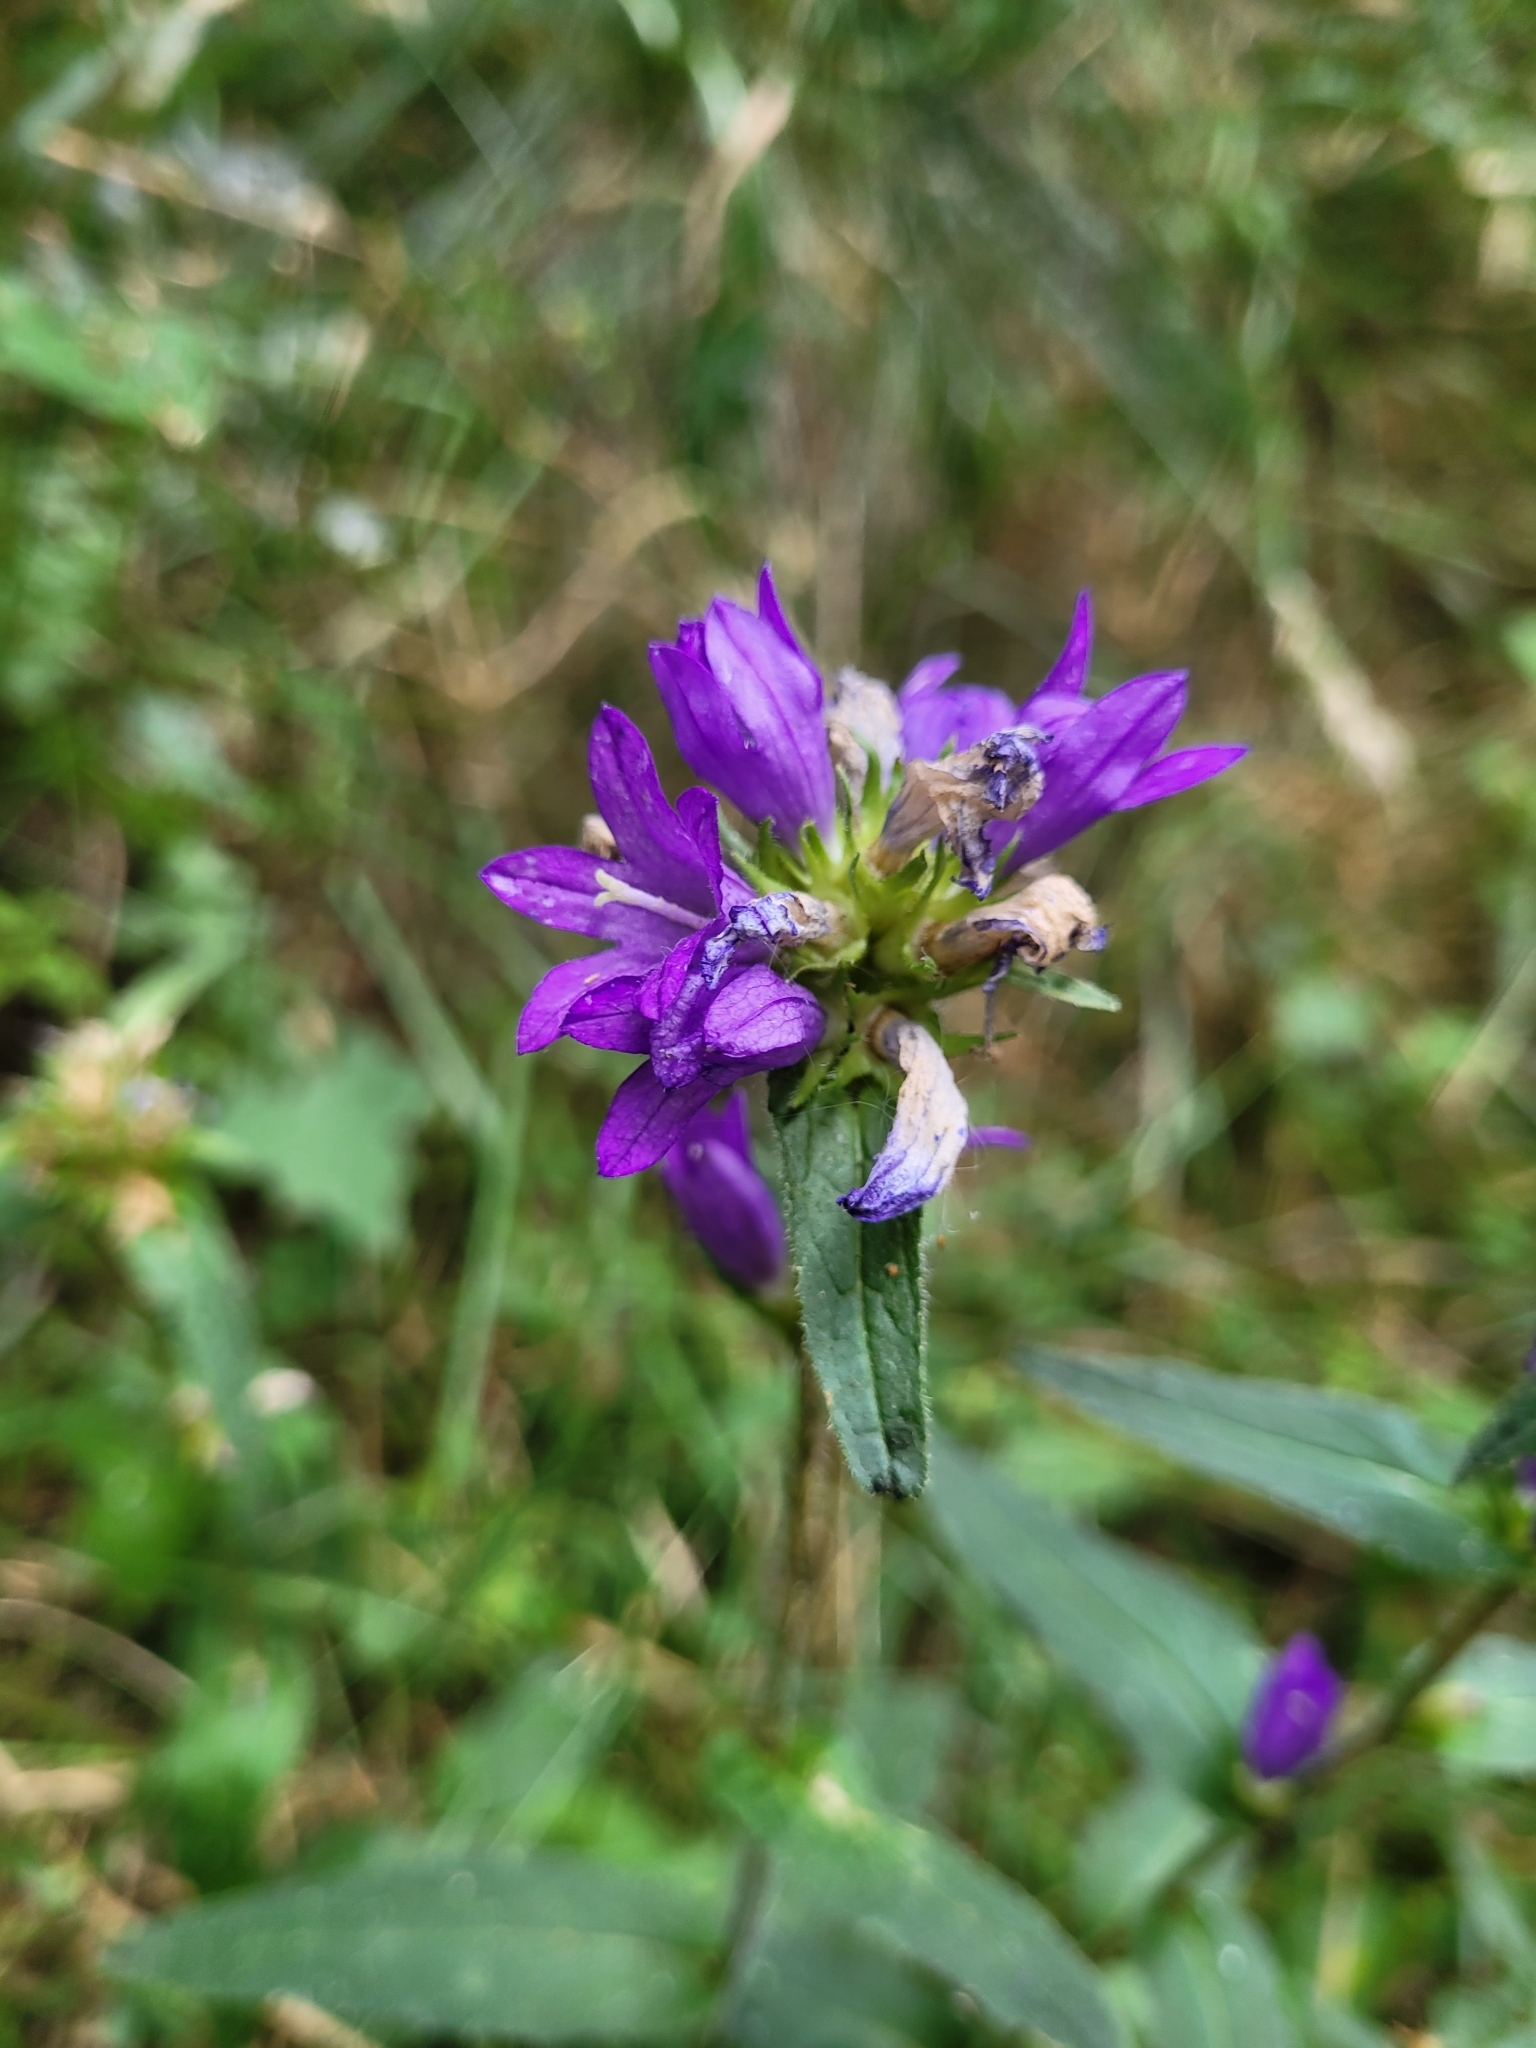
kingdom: Plantae
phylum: Tracheophyta
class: Magnoliopsida
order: Asterales
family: Campanulaceae
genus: Campanula
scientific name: Campanula glomerata
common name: Clustered bellflower
